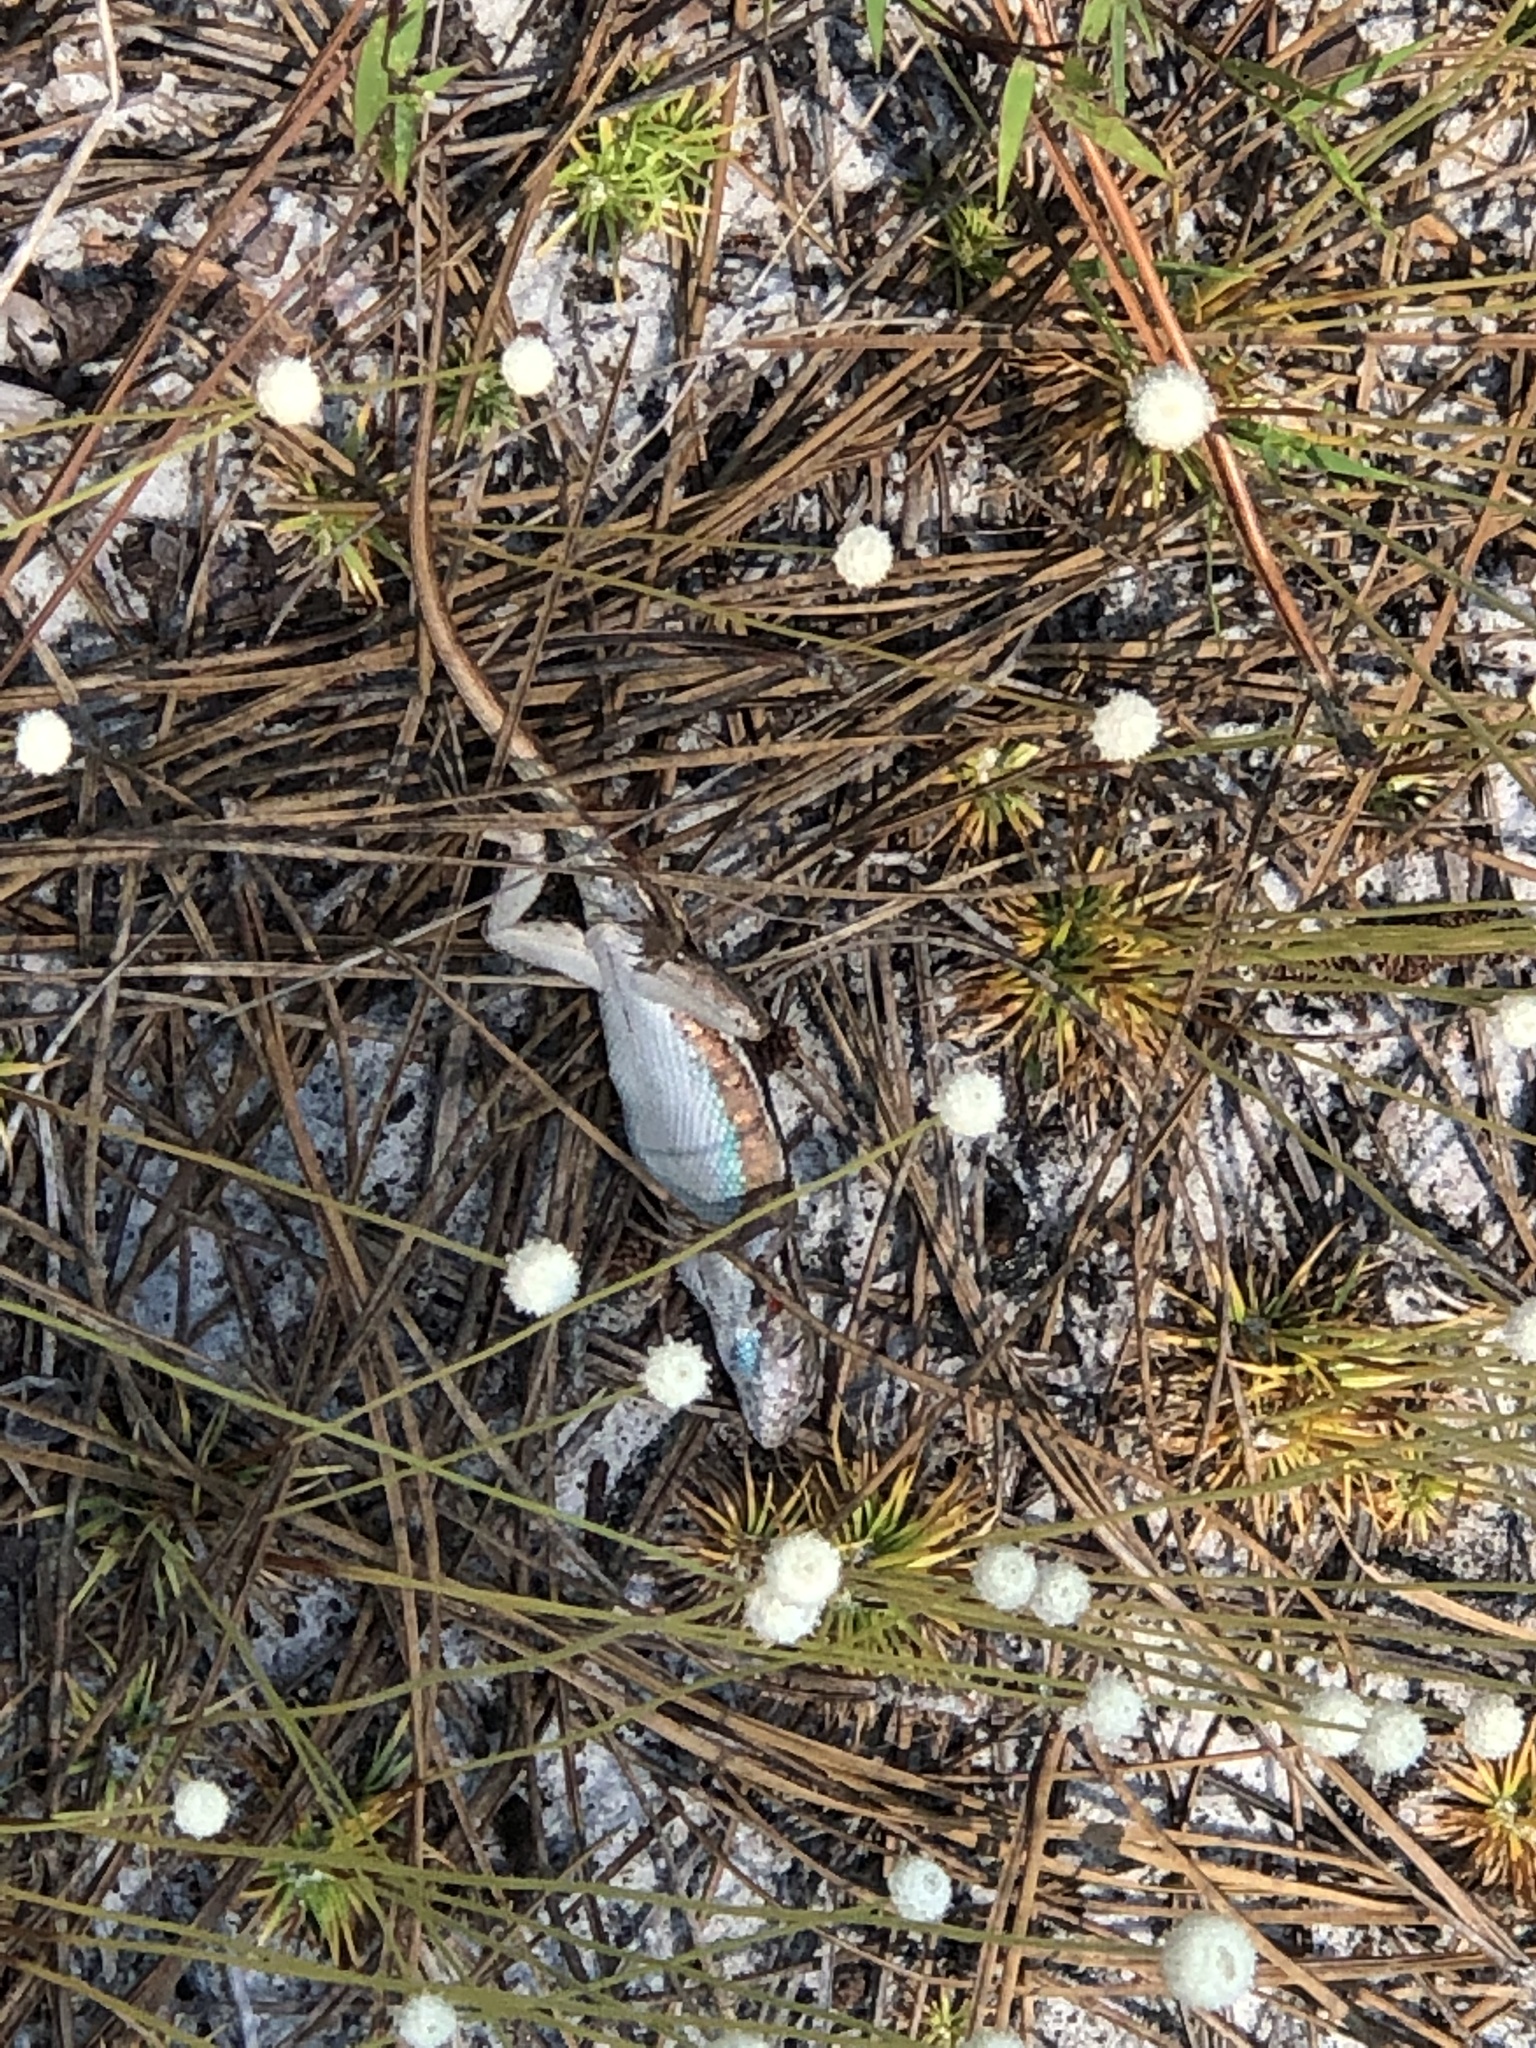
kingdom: Animalia
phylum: Chordata
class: Squamata
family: Phrynosomatidae
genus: Sceloporus
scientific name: Sceloporus woodi
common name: Florida scrub lizard
